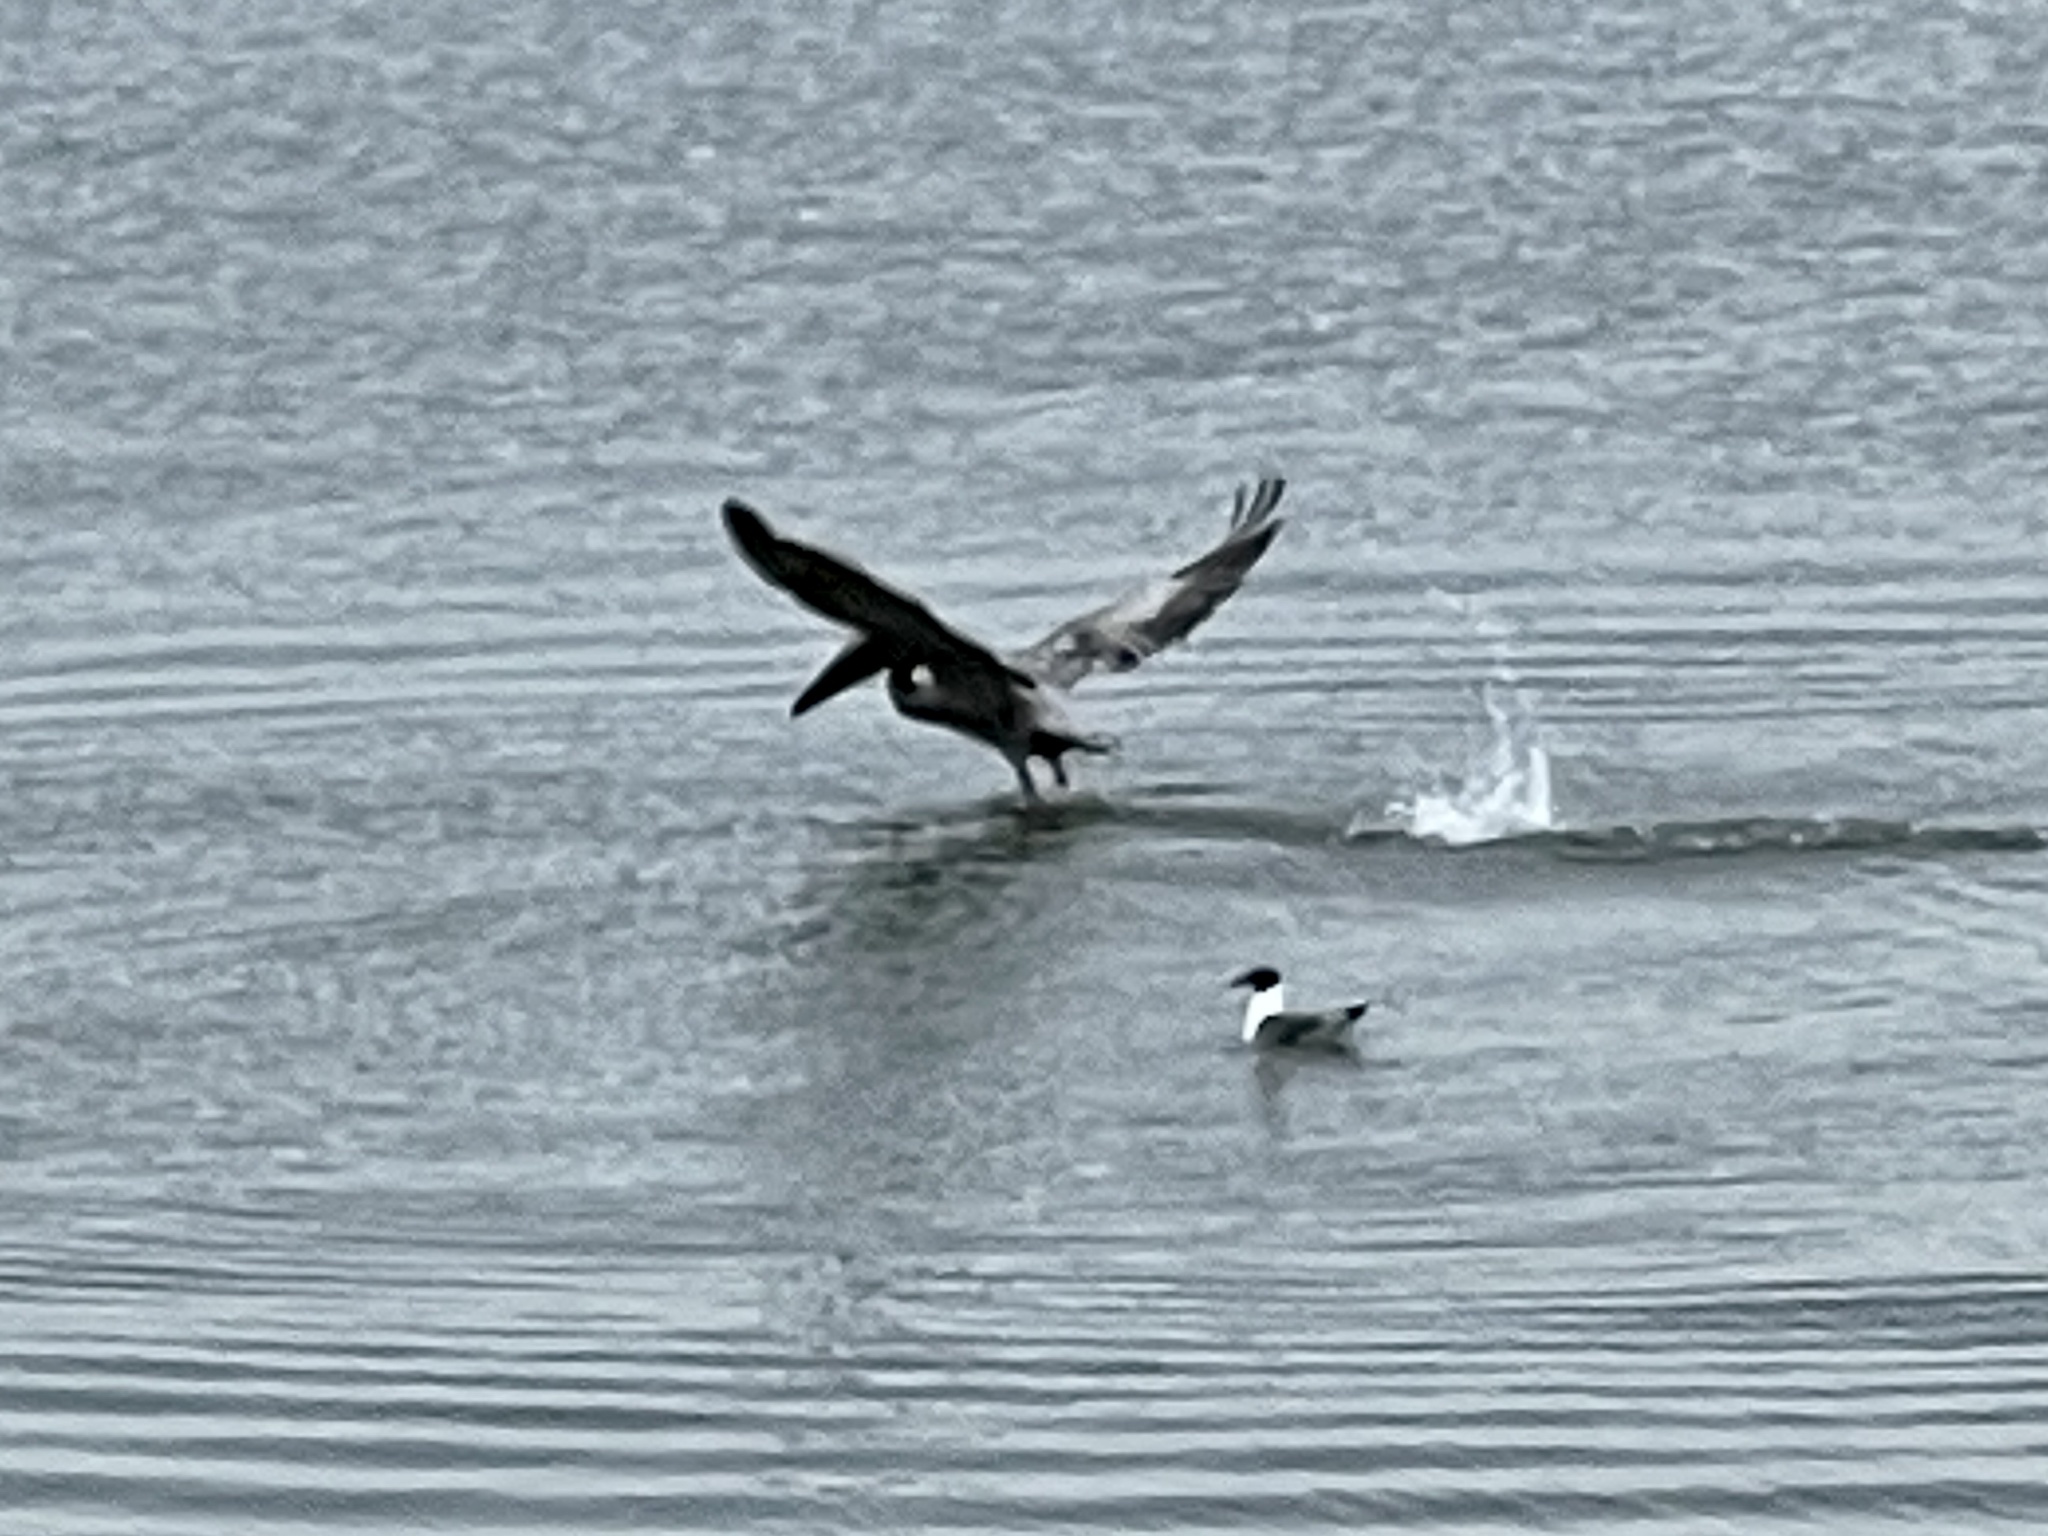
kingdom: Animalia
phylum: Chordata
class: Aves
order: Pelecaniformes
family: Pelecanidae
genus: Pelecanus
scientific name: Pelecanus occidentalis
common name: Brown pelican
